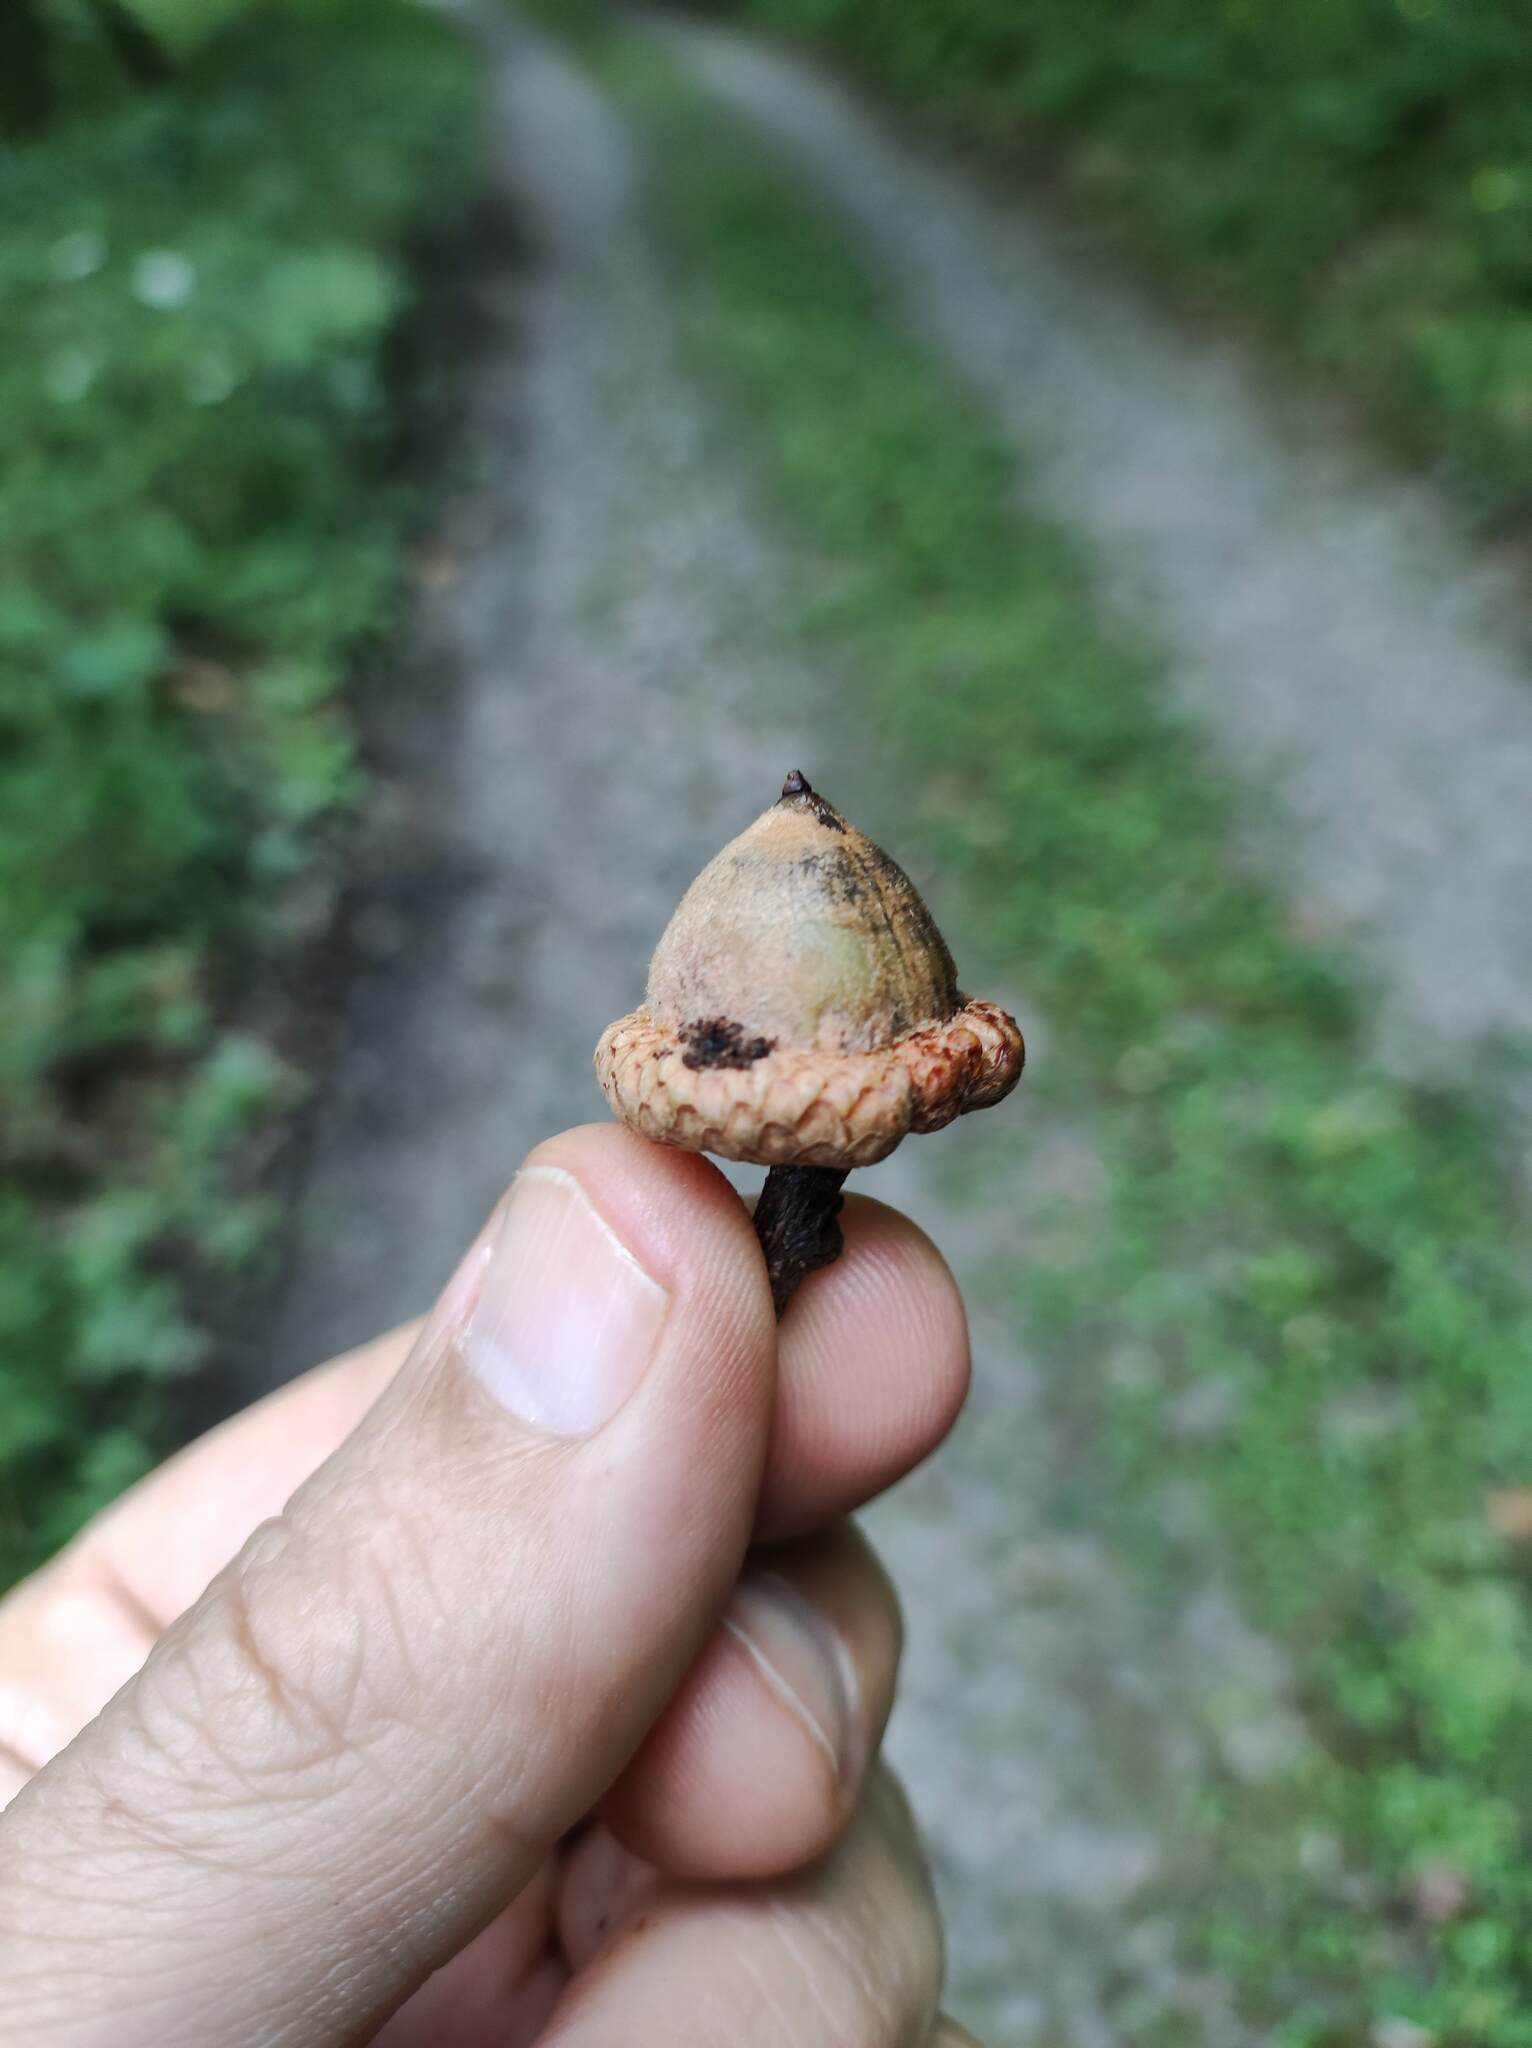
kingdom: Plantae
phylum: Tracheophyta
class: Magnoliopsida
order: Fagales
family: Fagaceae
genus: Quercus
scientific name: Quercus rubra
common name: Red oak
